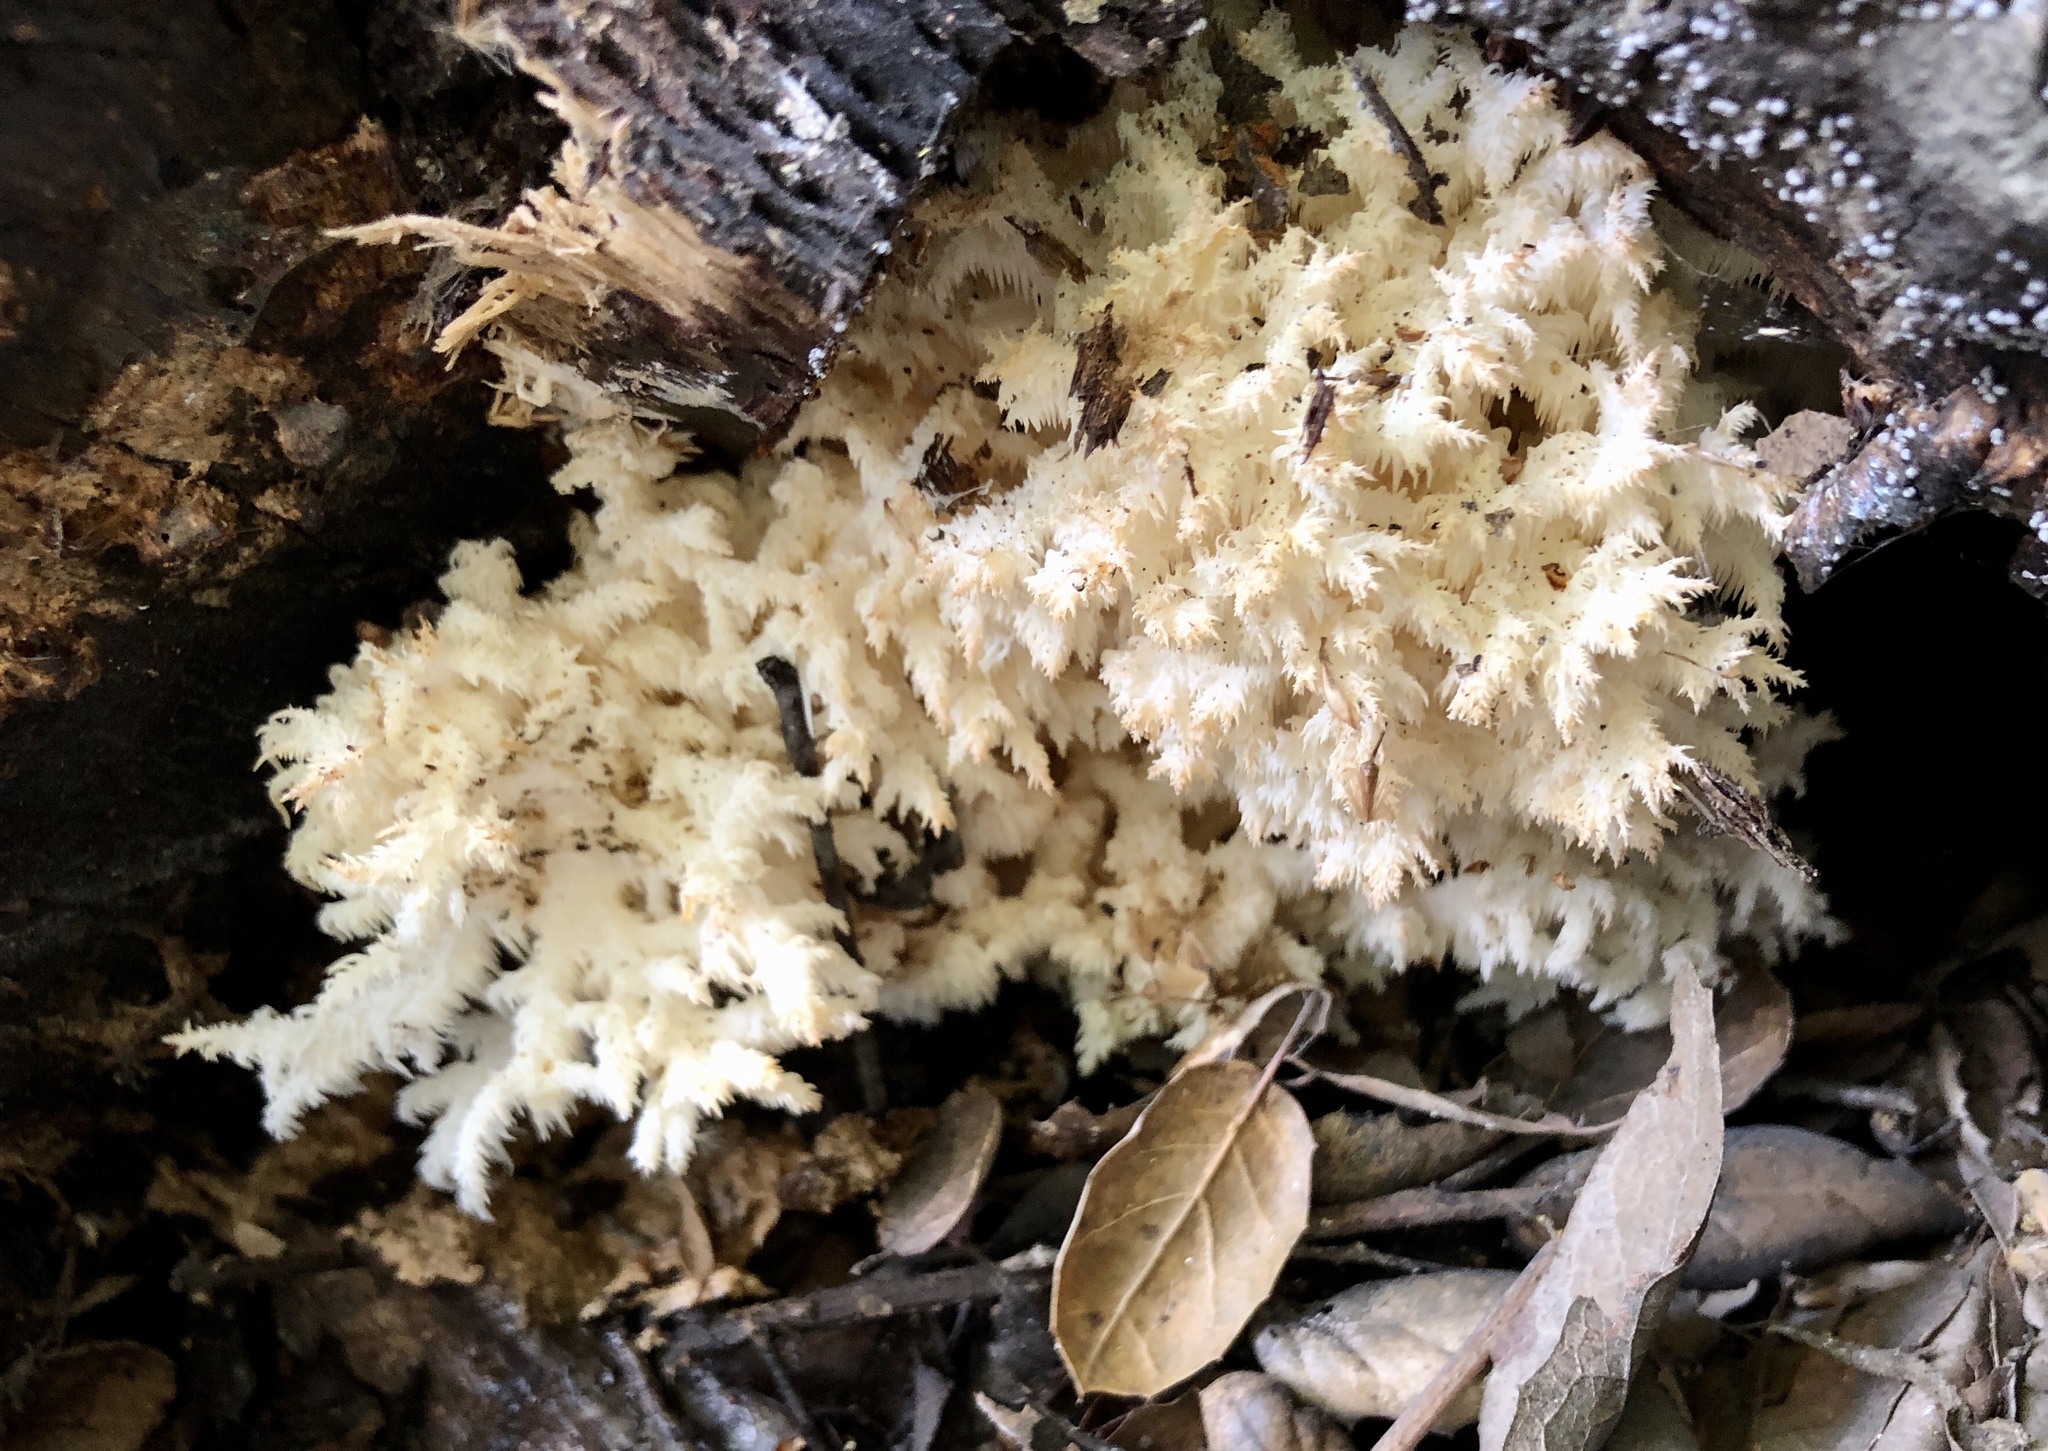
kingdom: Fungi
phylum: Basidiomycota
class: Agaricomycetes
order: Russulales
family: Hericiaceae
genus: Hericium
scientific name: Hericium coralloides
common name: Coral tooth
